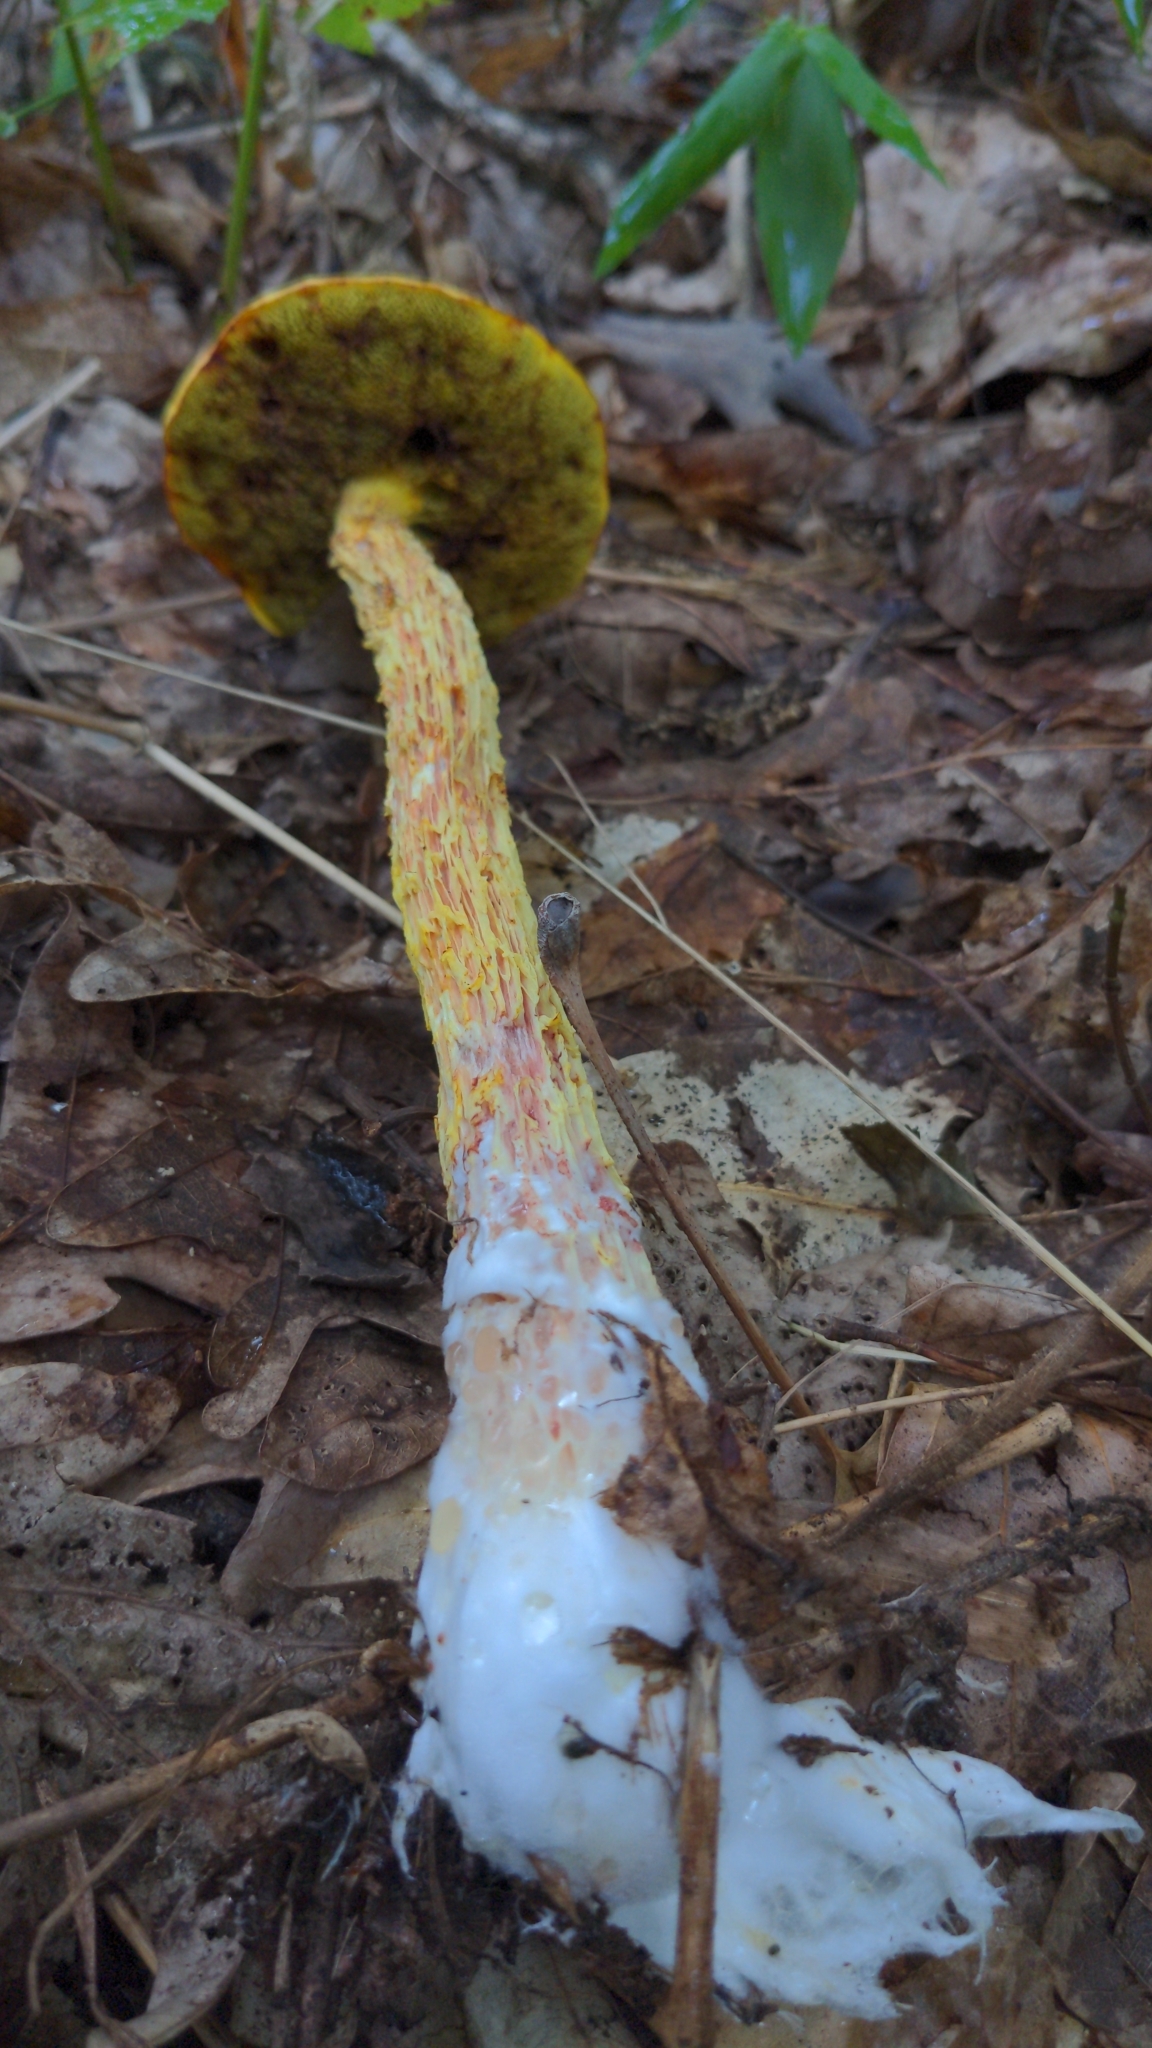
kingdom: Fungi
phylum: Basidiomycota
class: Agaricomycetes
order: Boletales
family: Boletaceae
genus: Aureoboletus
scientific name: Aureoboletus betula
